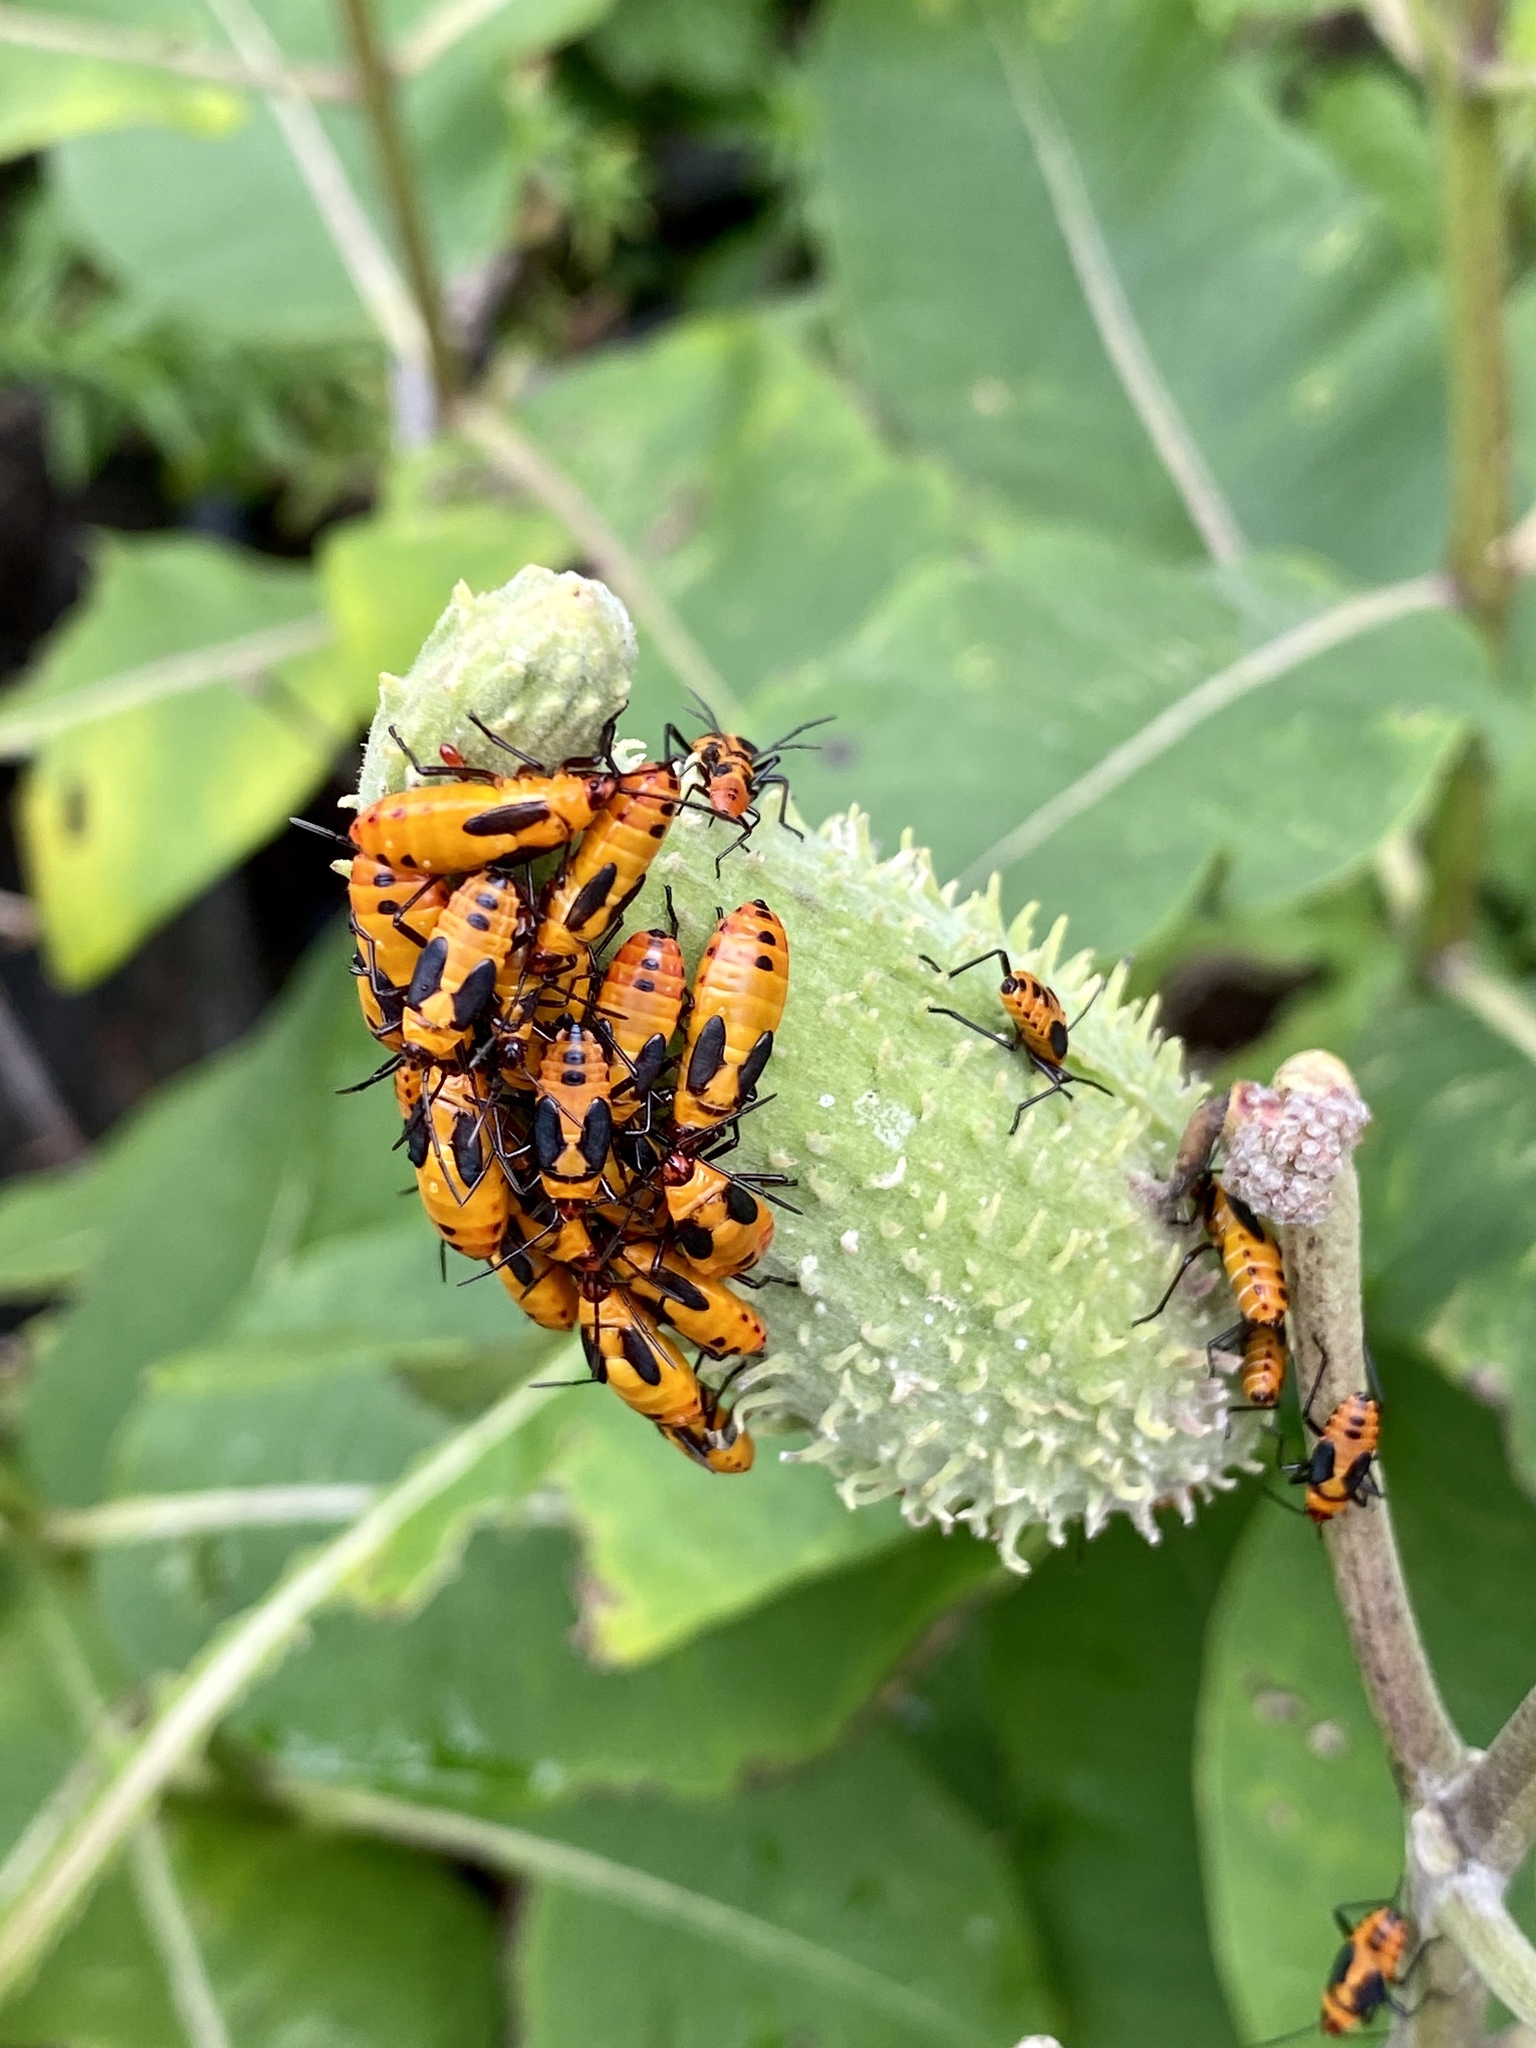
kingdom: Animalia
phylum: Arthropoda
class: Insecta
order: Hemiptera
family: Lygaeidae
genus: Oncopeltus
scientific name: Oncopeltus fasciatus
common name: Large milkweed bug
